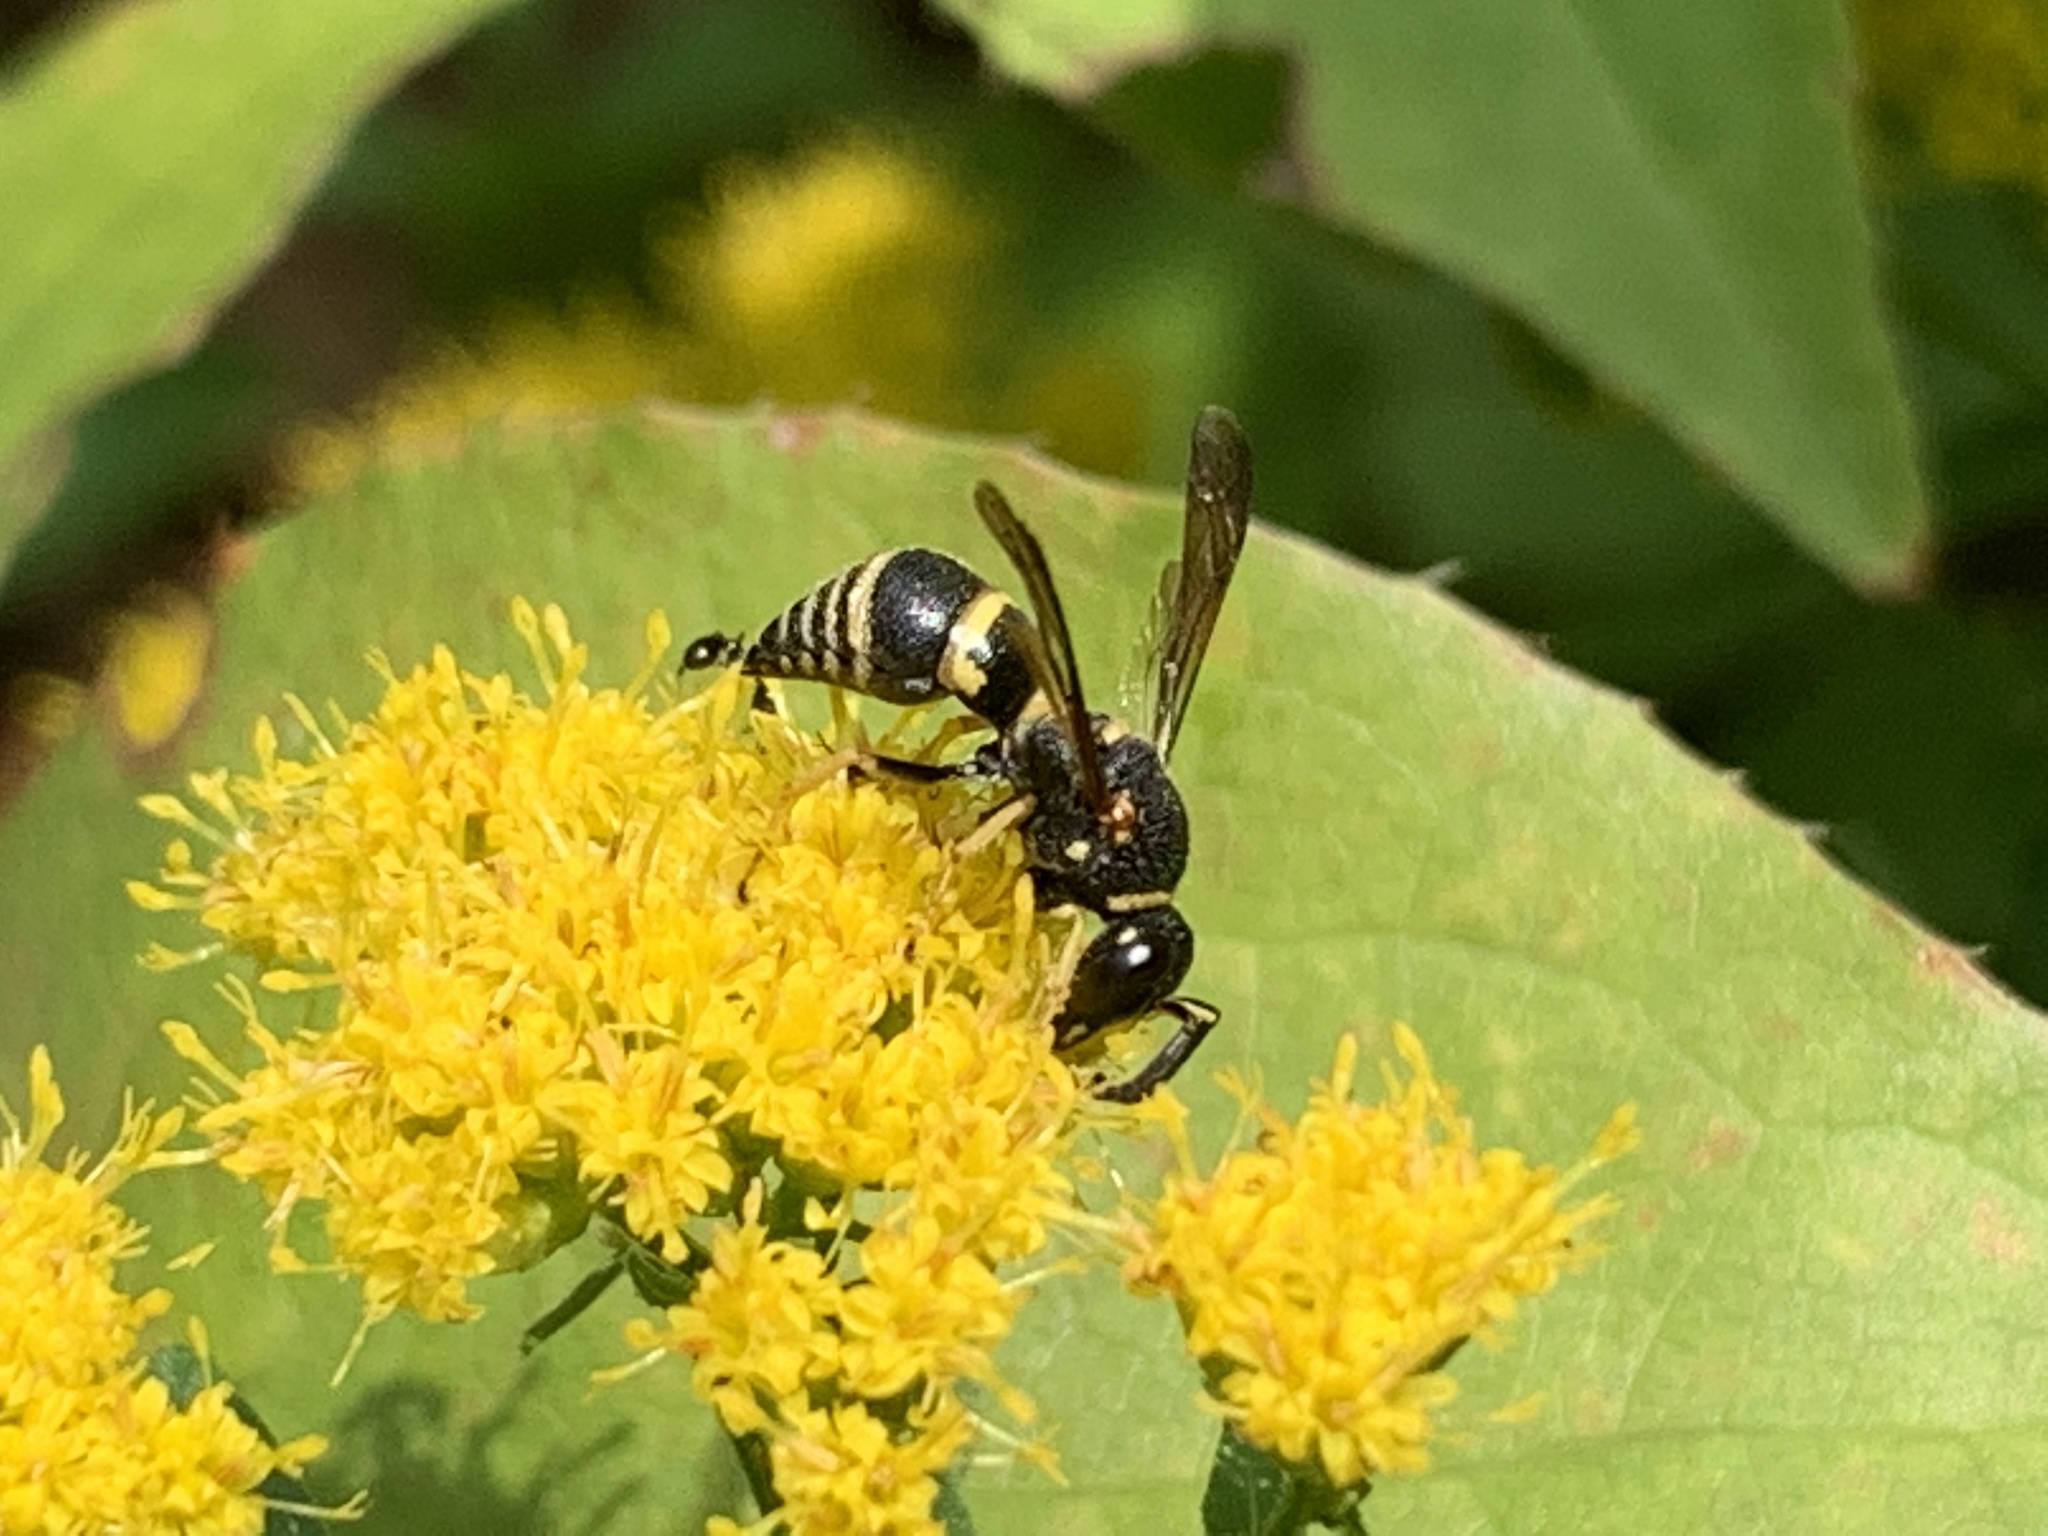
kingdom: Animalia
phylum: Arthropoda
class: Insecta
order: Hymenoptera
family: Eumenidae
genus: Euodynerus
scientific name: Euodynerus foraminatus
